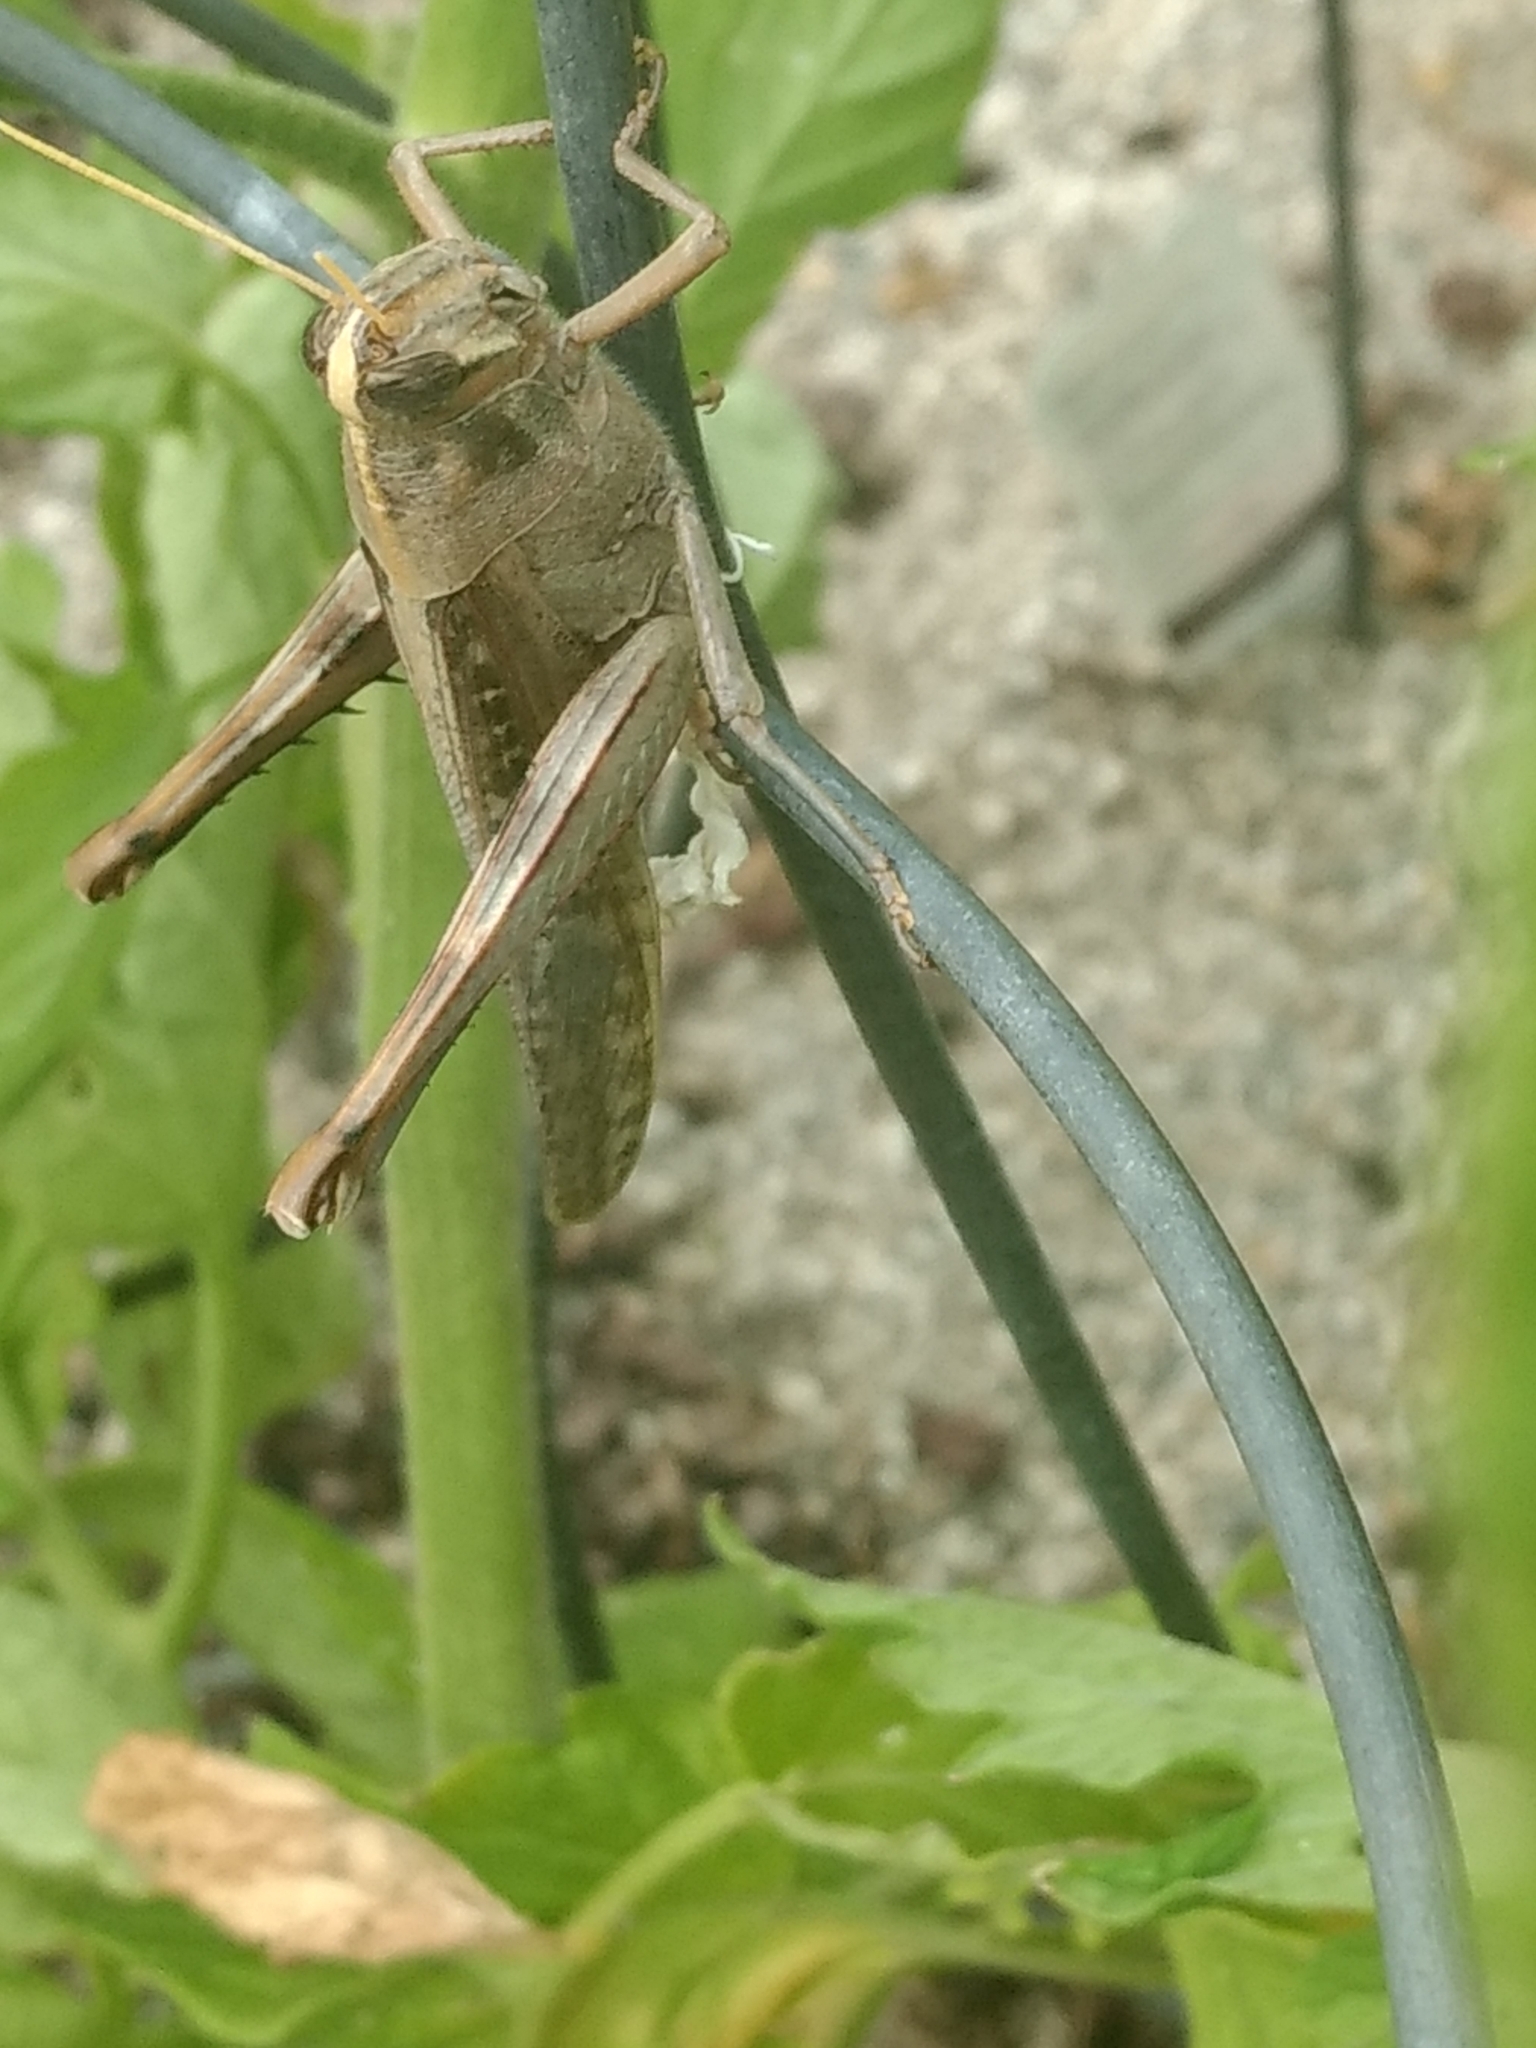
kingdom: Animalia
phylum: Arthropoda
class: Insecta
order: Orthoptera
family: Acrididae
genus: Schistocerca
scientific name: Schistocerca nitens
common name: Vagrant grasshopper
